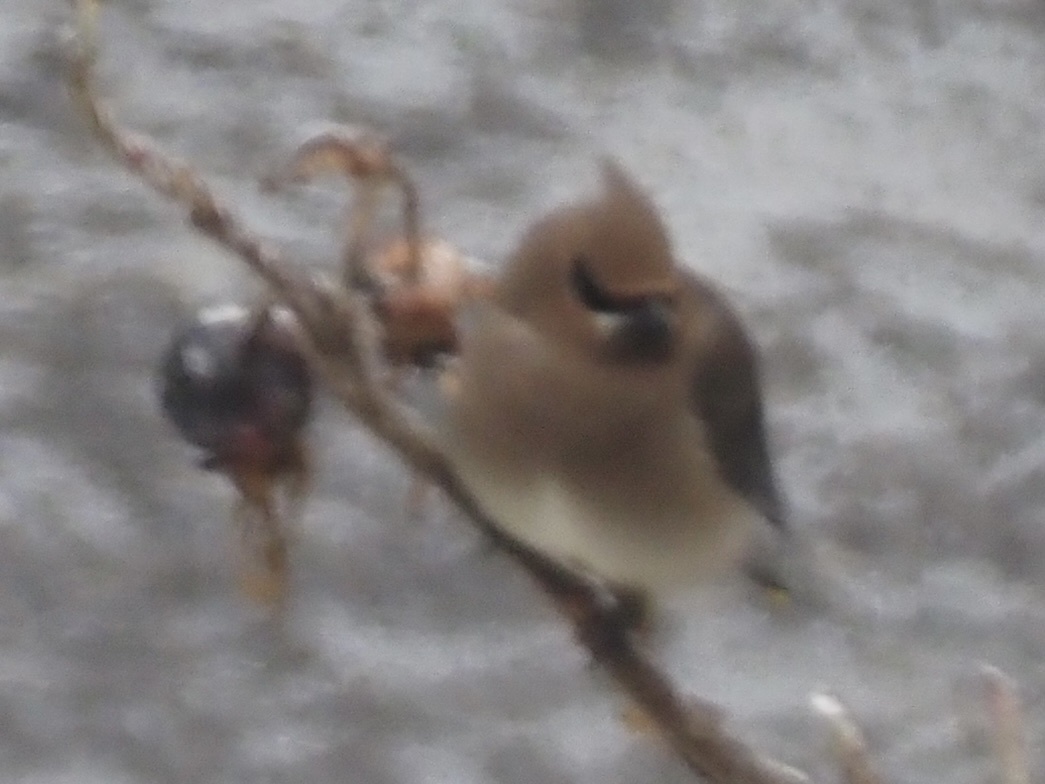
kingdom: Animalia
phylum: Chordata
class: Aves
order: Passeriformes
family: Bombycillidae
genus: Bombycilla
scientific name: Bombycilla cedrorum
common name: Cedar waxwing
